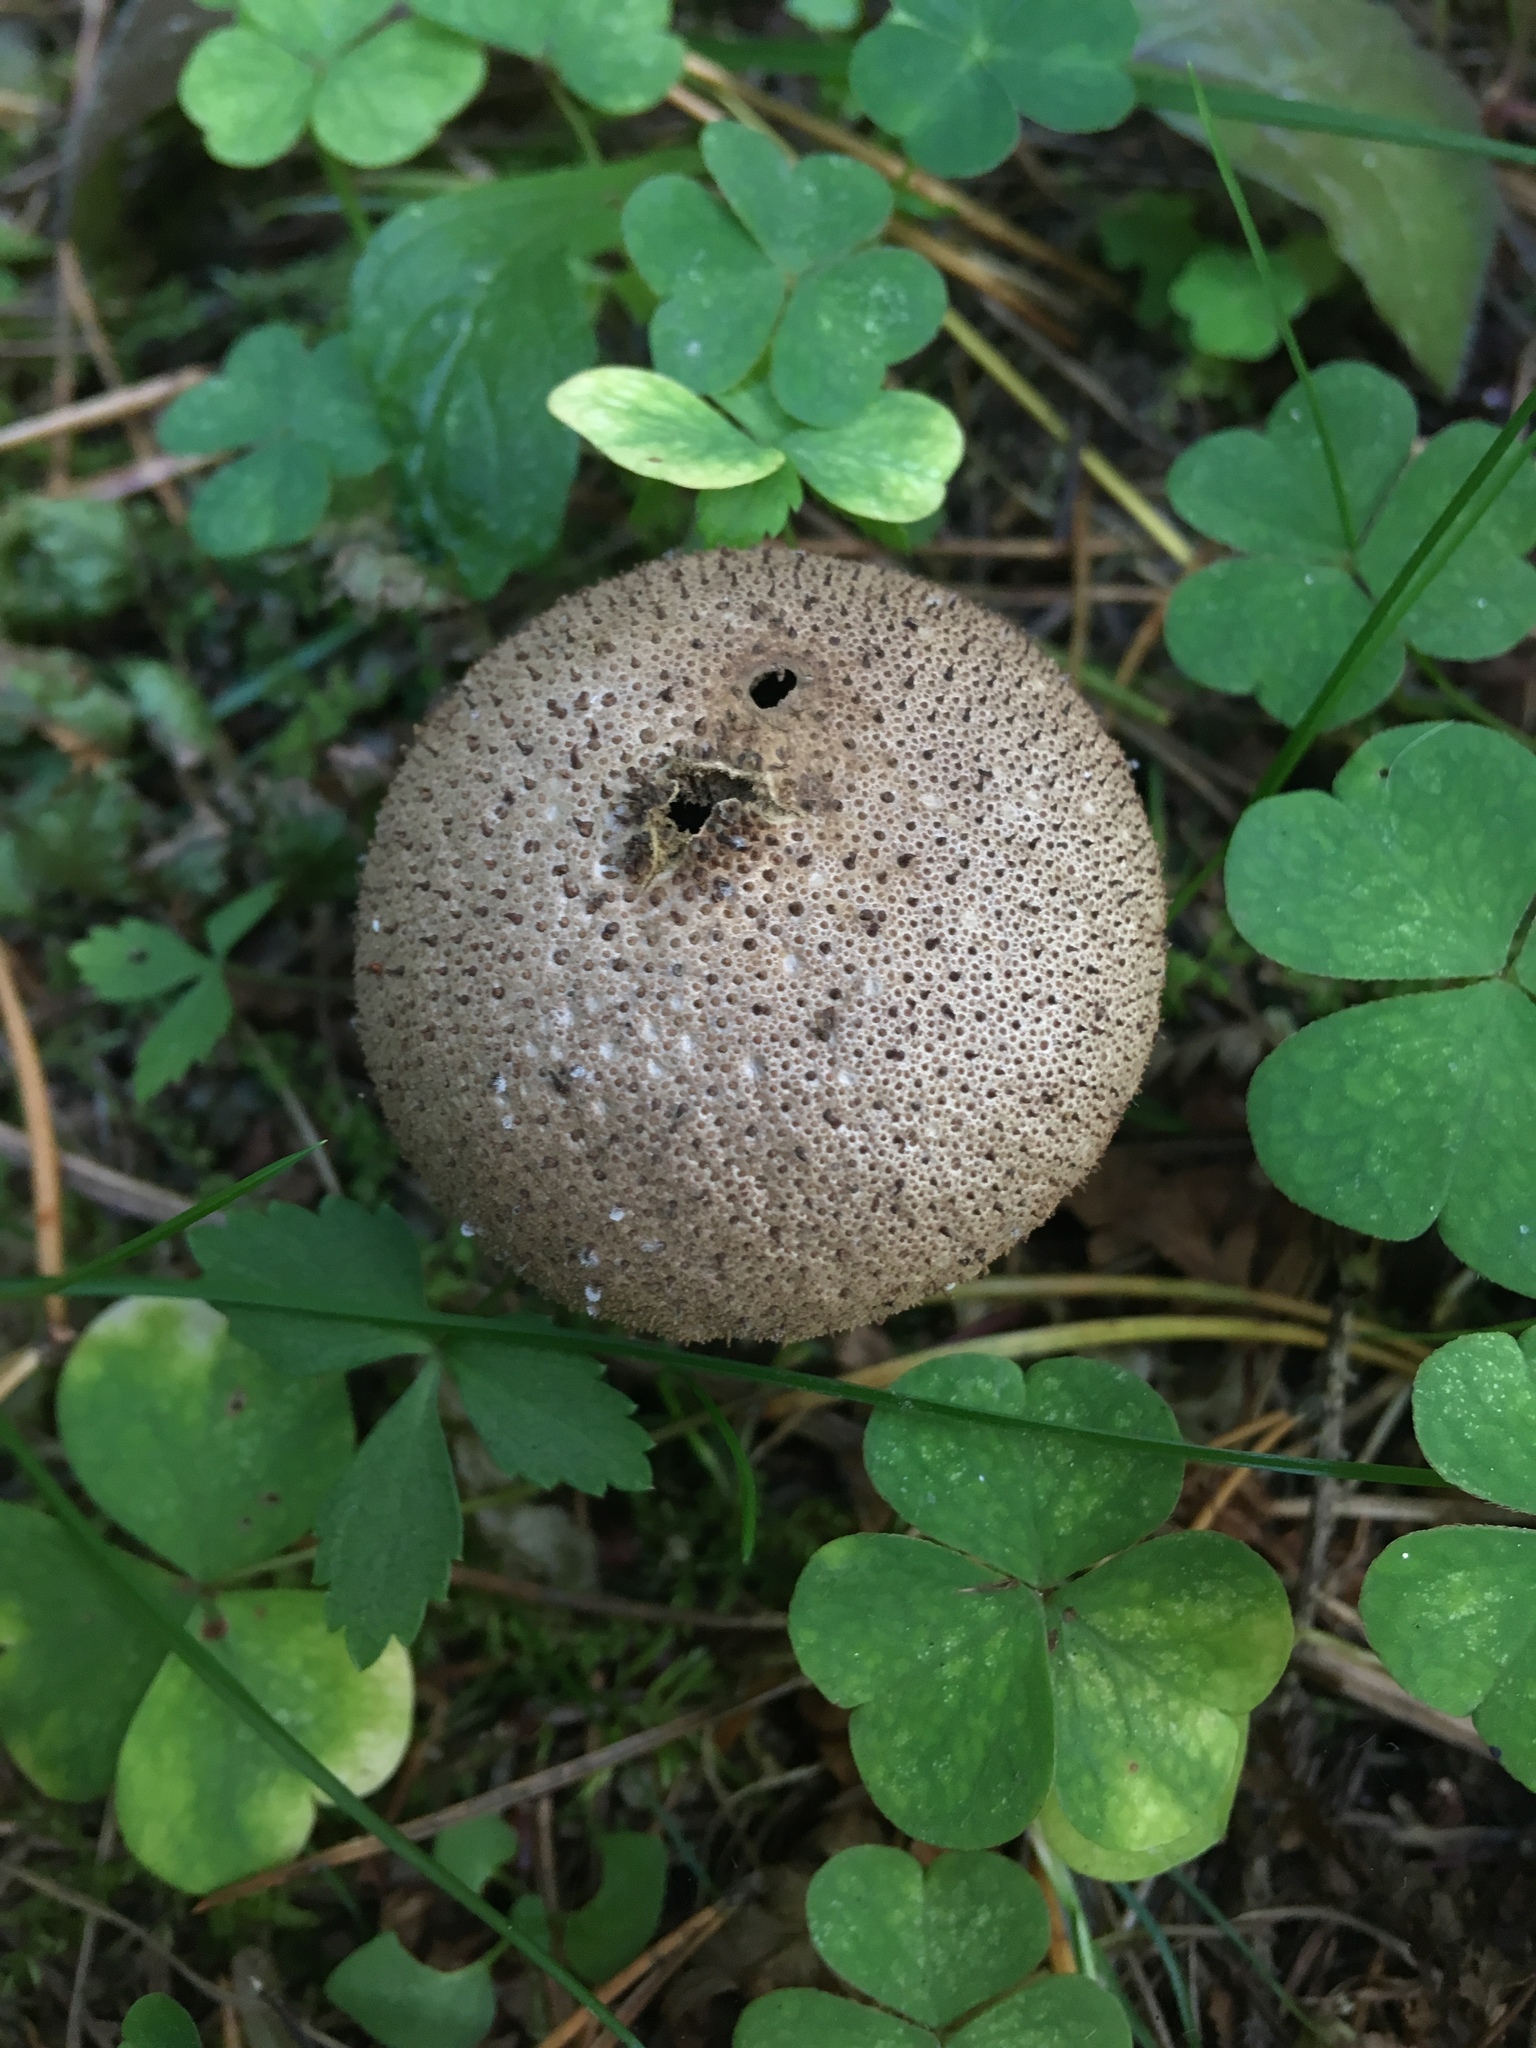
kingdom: Fungi
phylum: Basidiomycota
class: Agaricomycetes
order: Agaricales
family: Lycoperdaceae
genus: Lycoperdon
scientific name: Lycoperdon perlatum
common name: Common puffball
